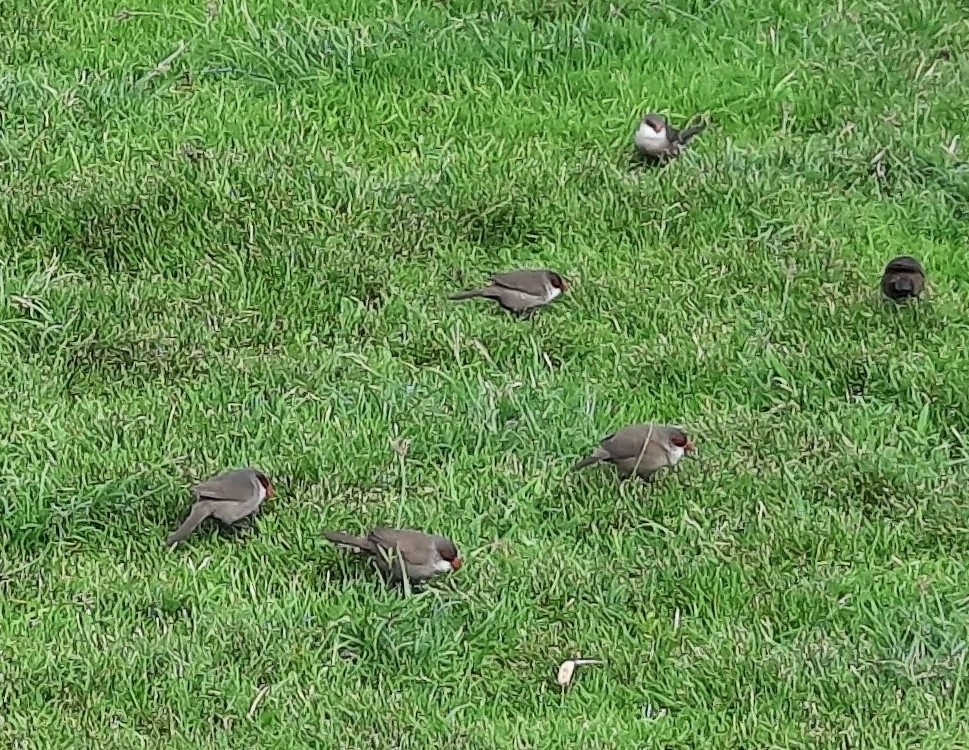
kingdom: Animalia
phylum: Chordata
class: Aves
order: Passeriformes
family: Estrildidae
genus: Estrilda
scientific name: Estrilda astrild
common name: Common waxbill
